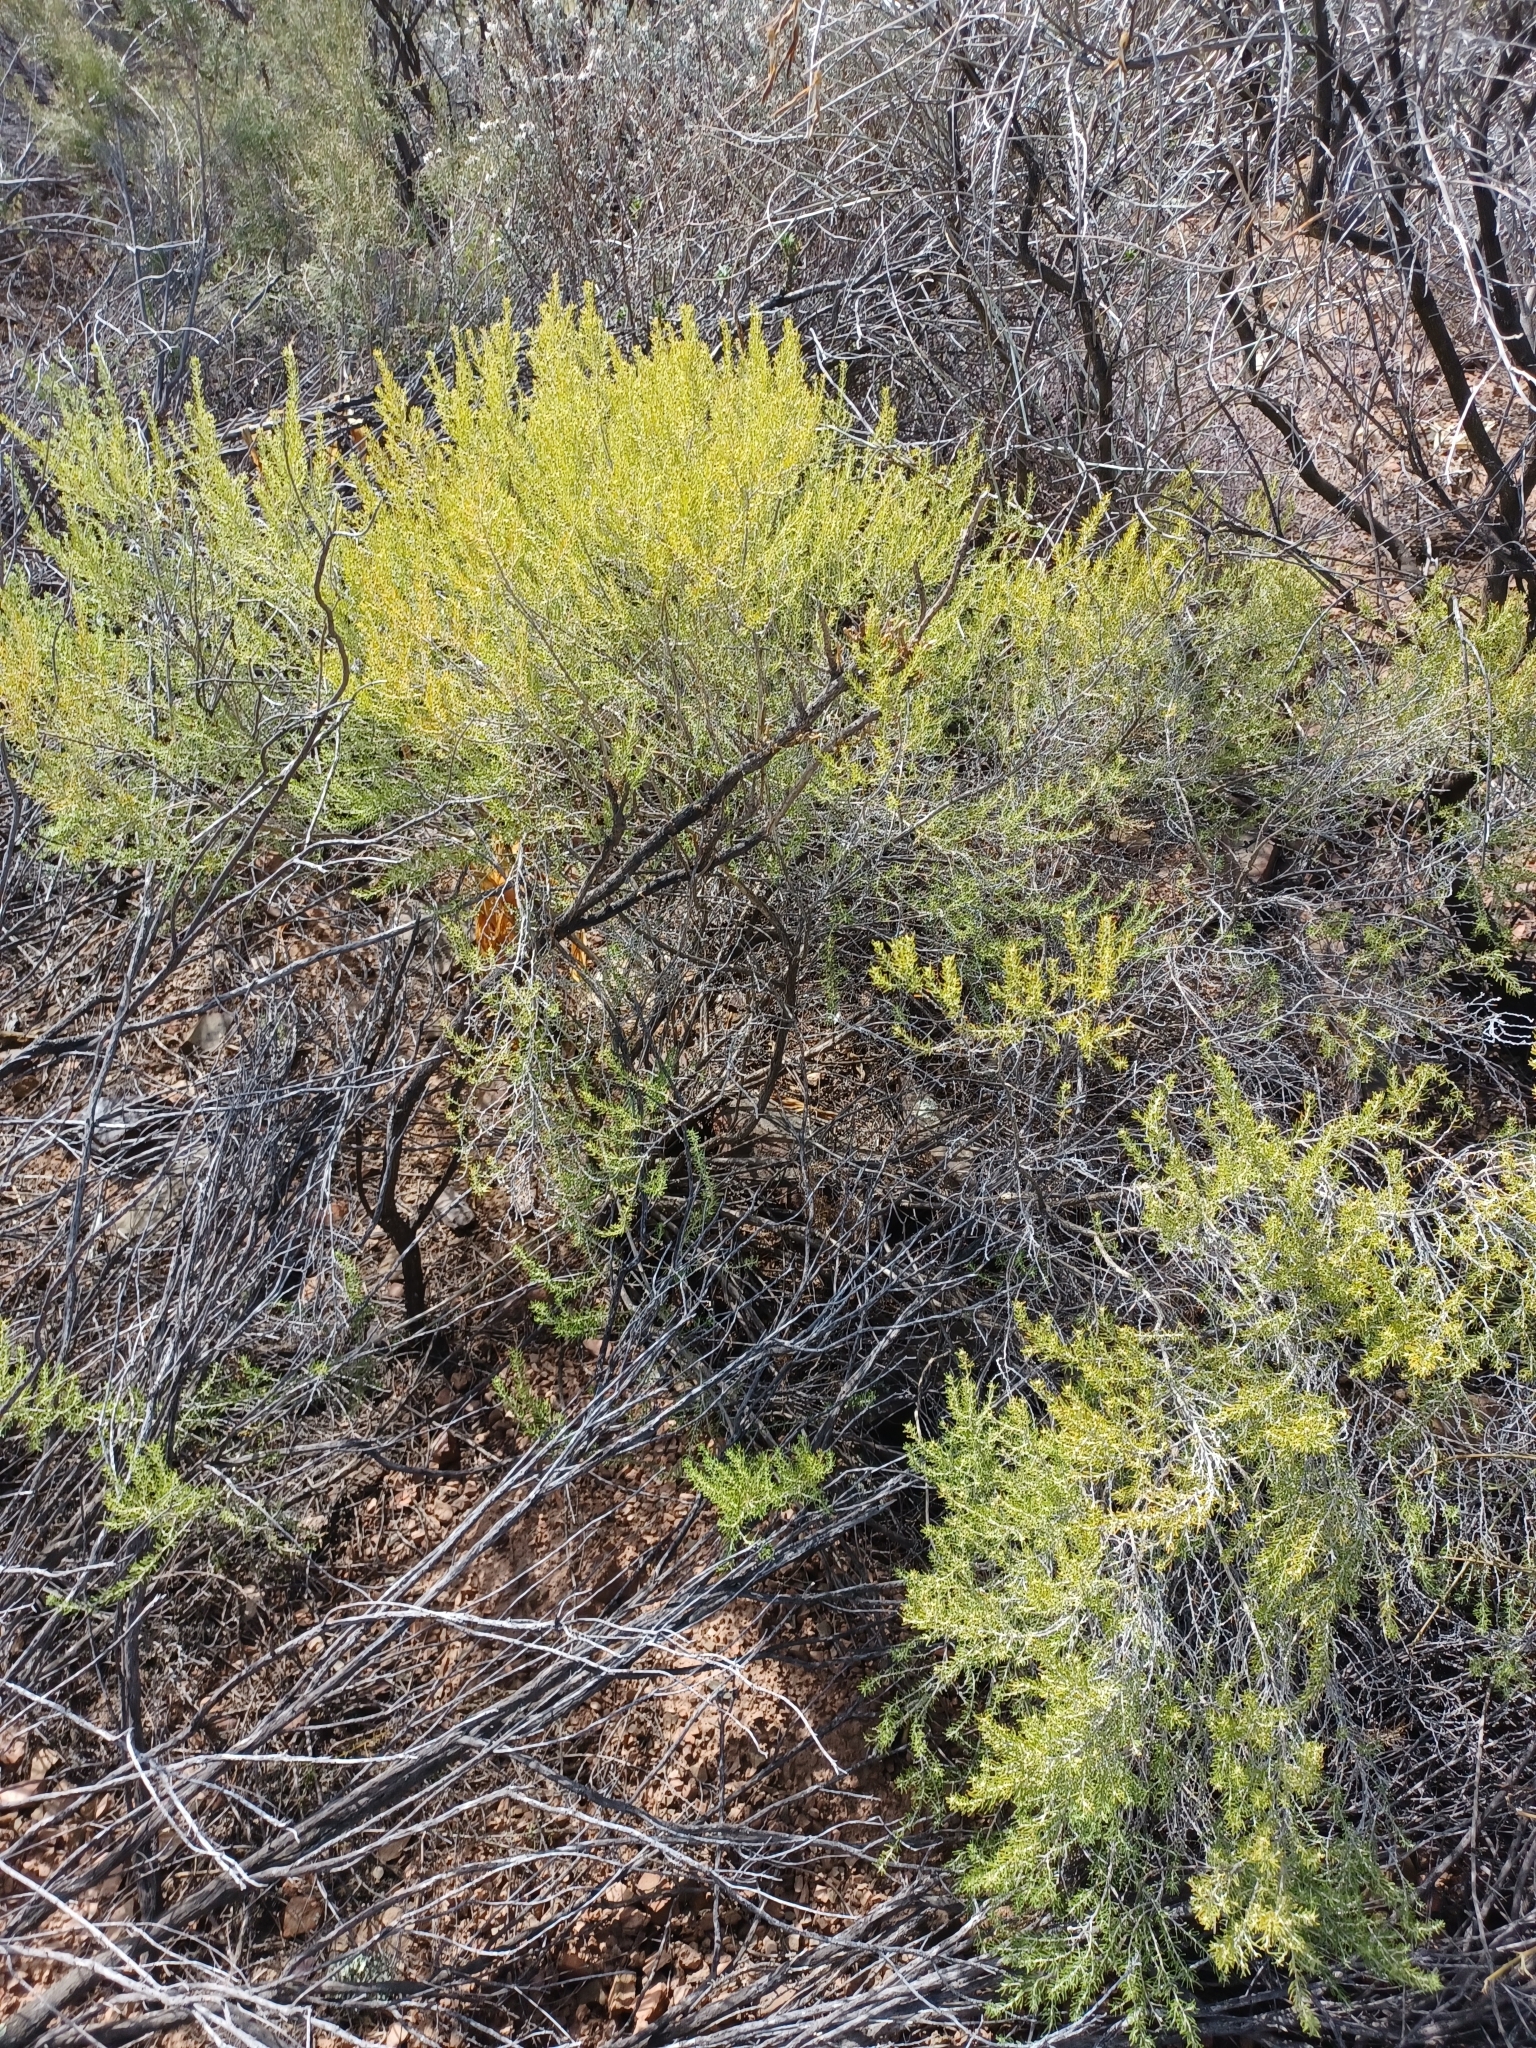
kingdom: Plantae
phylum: Tracheophyta
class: Magnoliopsida
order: Fabales
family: Fabaceae
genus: Aspalathus
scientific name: Aspalathus lactea
